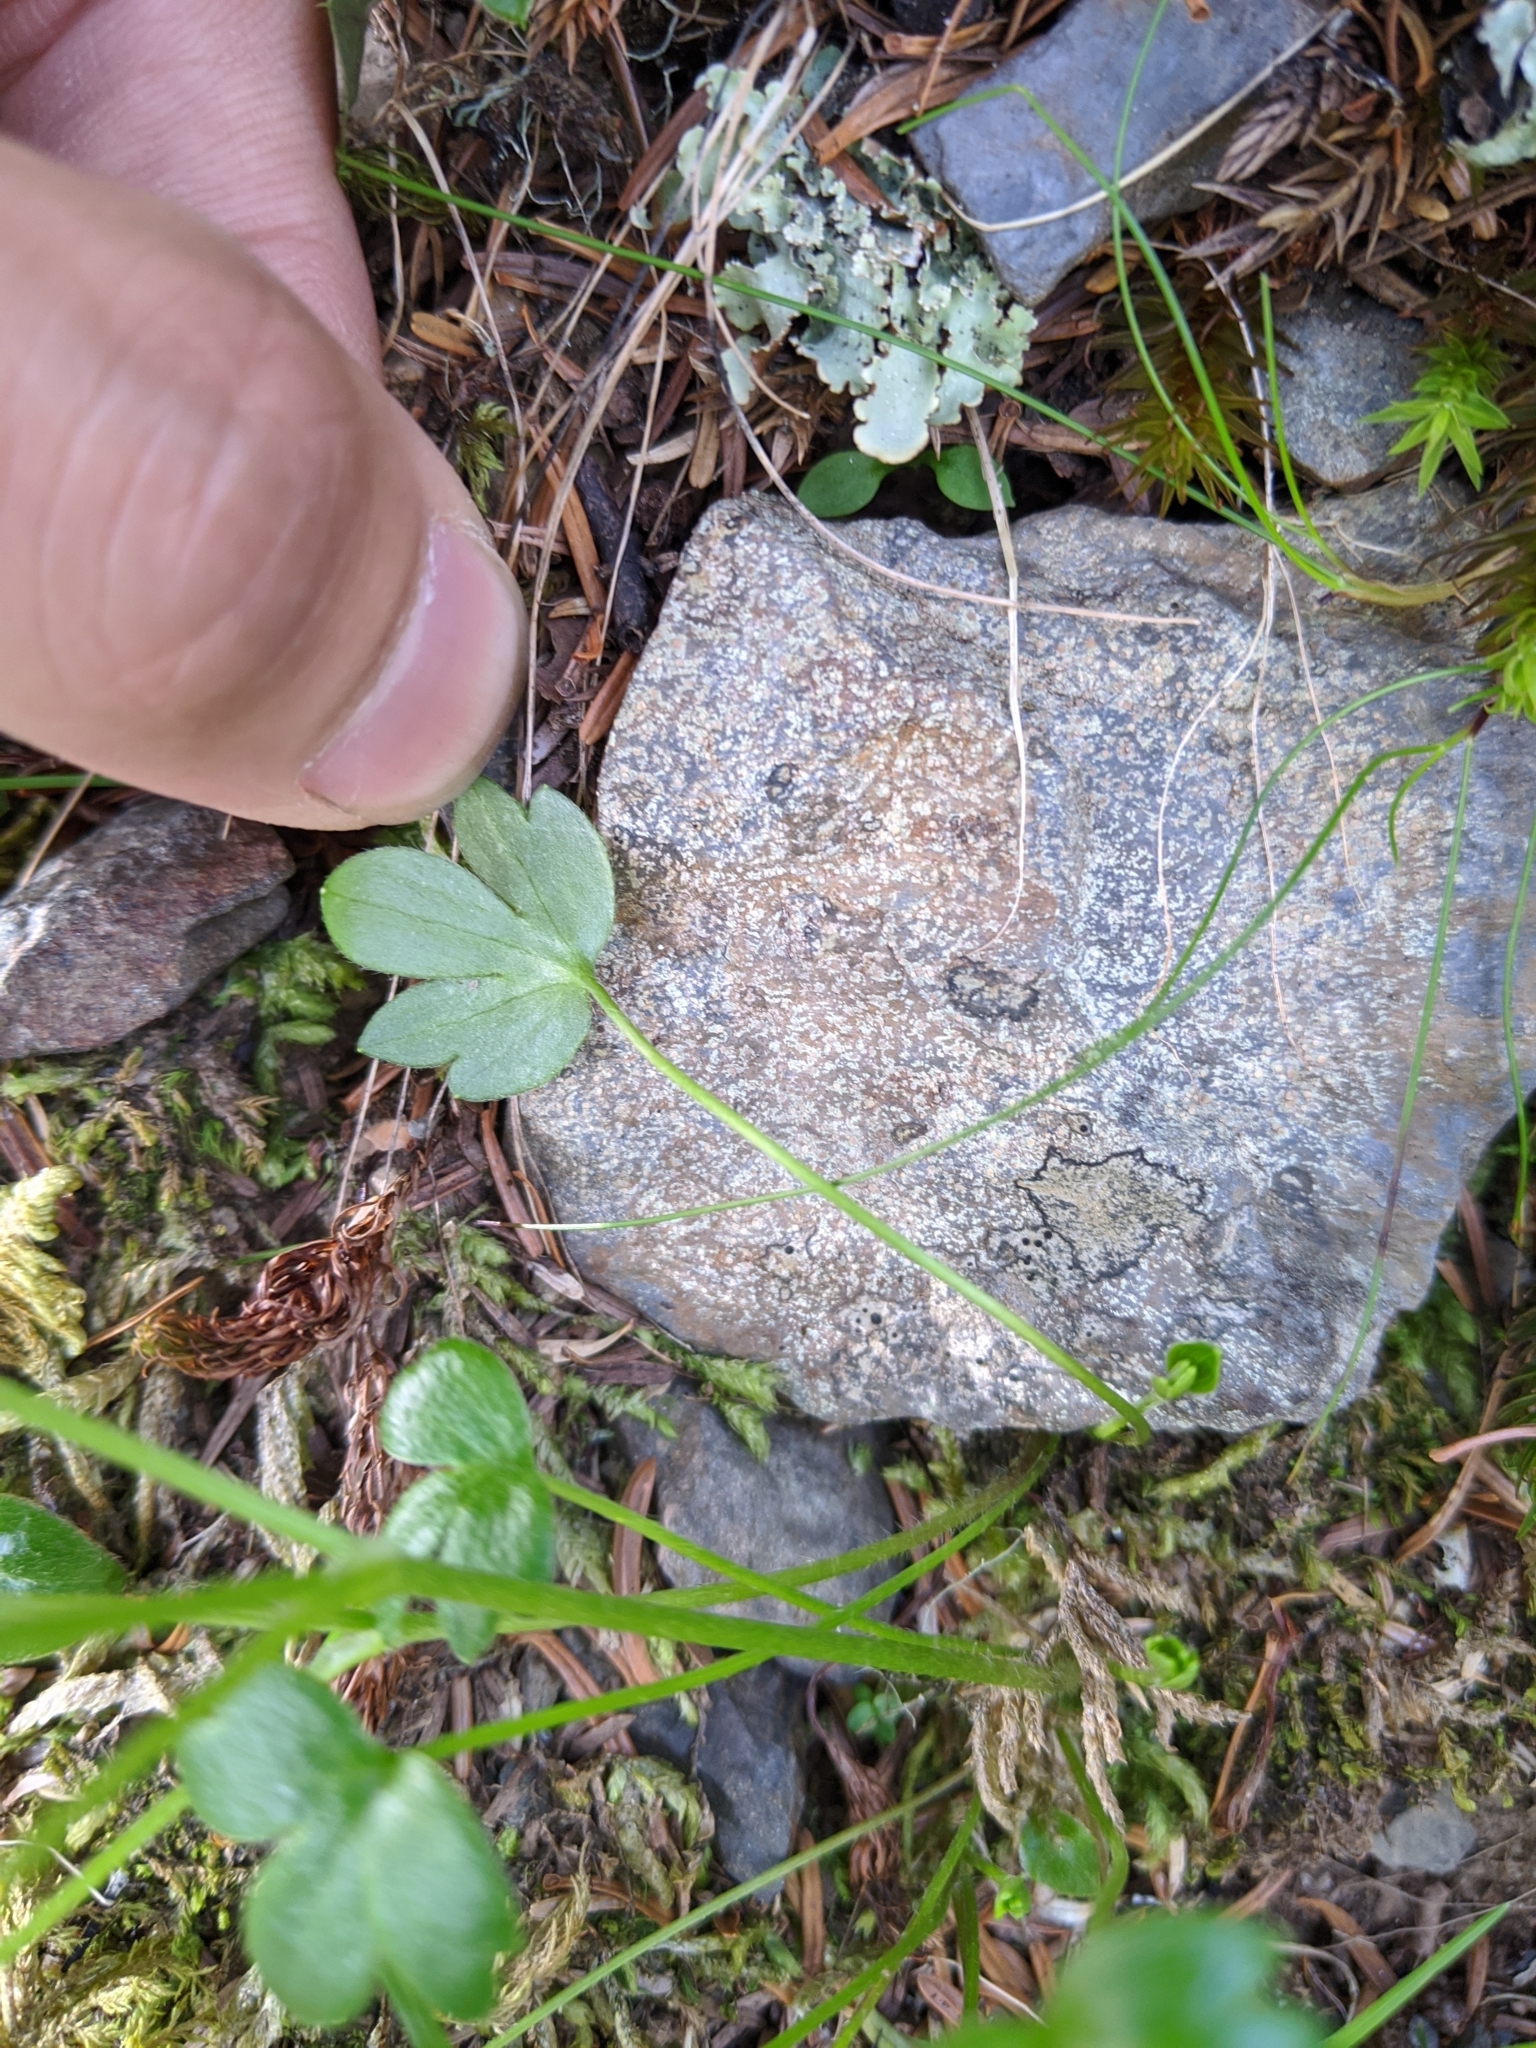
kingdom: Plantae
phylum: Tracheophyta
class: Magnoliopsida
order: Ranunculales
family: Ranunculaceae
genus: Ranunculus
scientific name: Ranunculus junipericola
